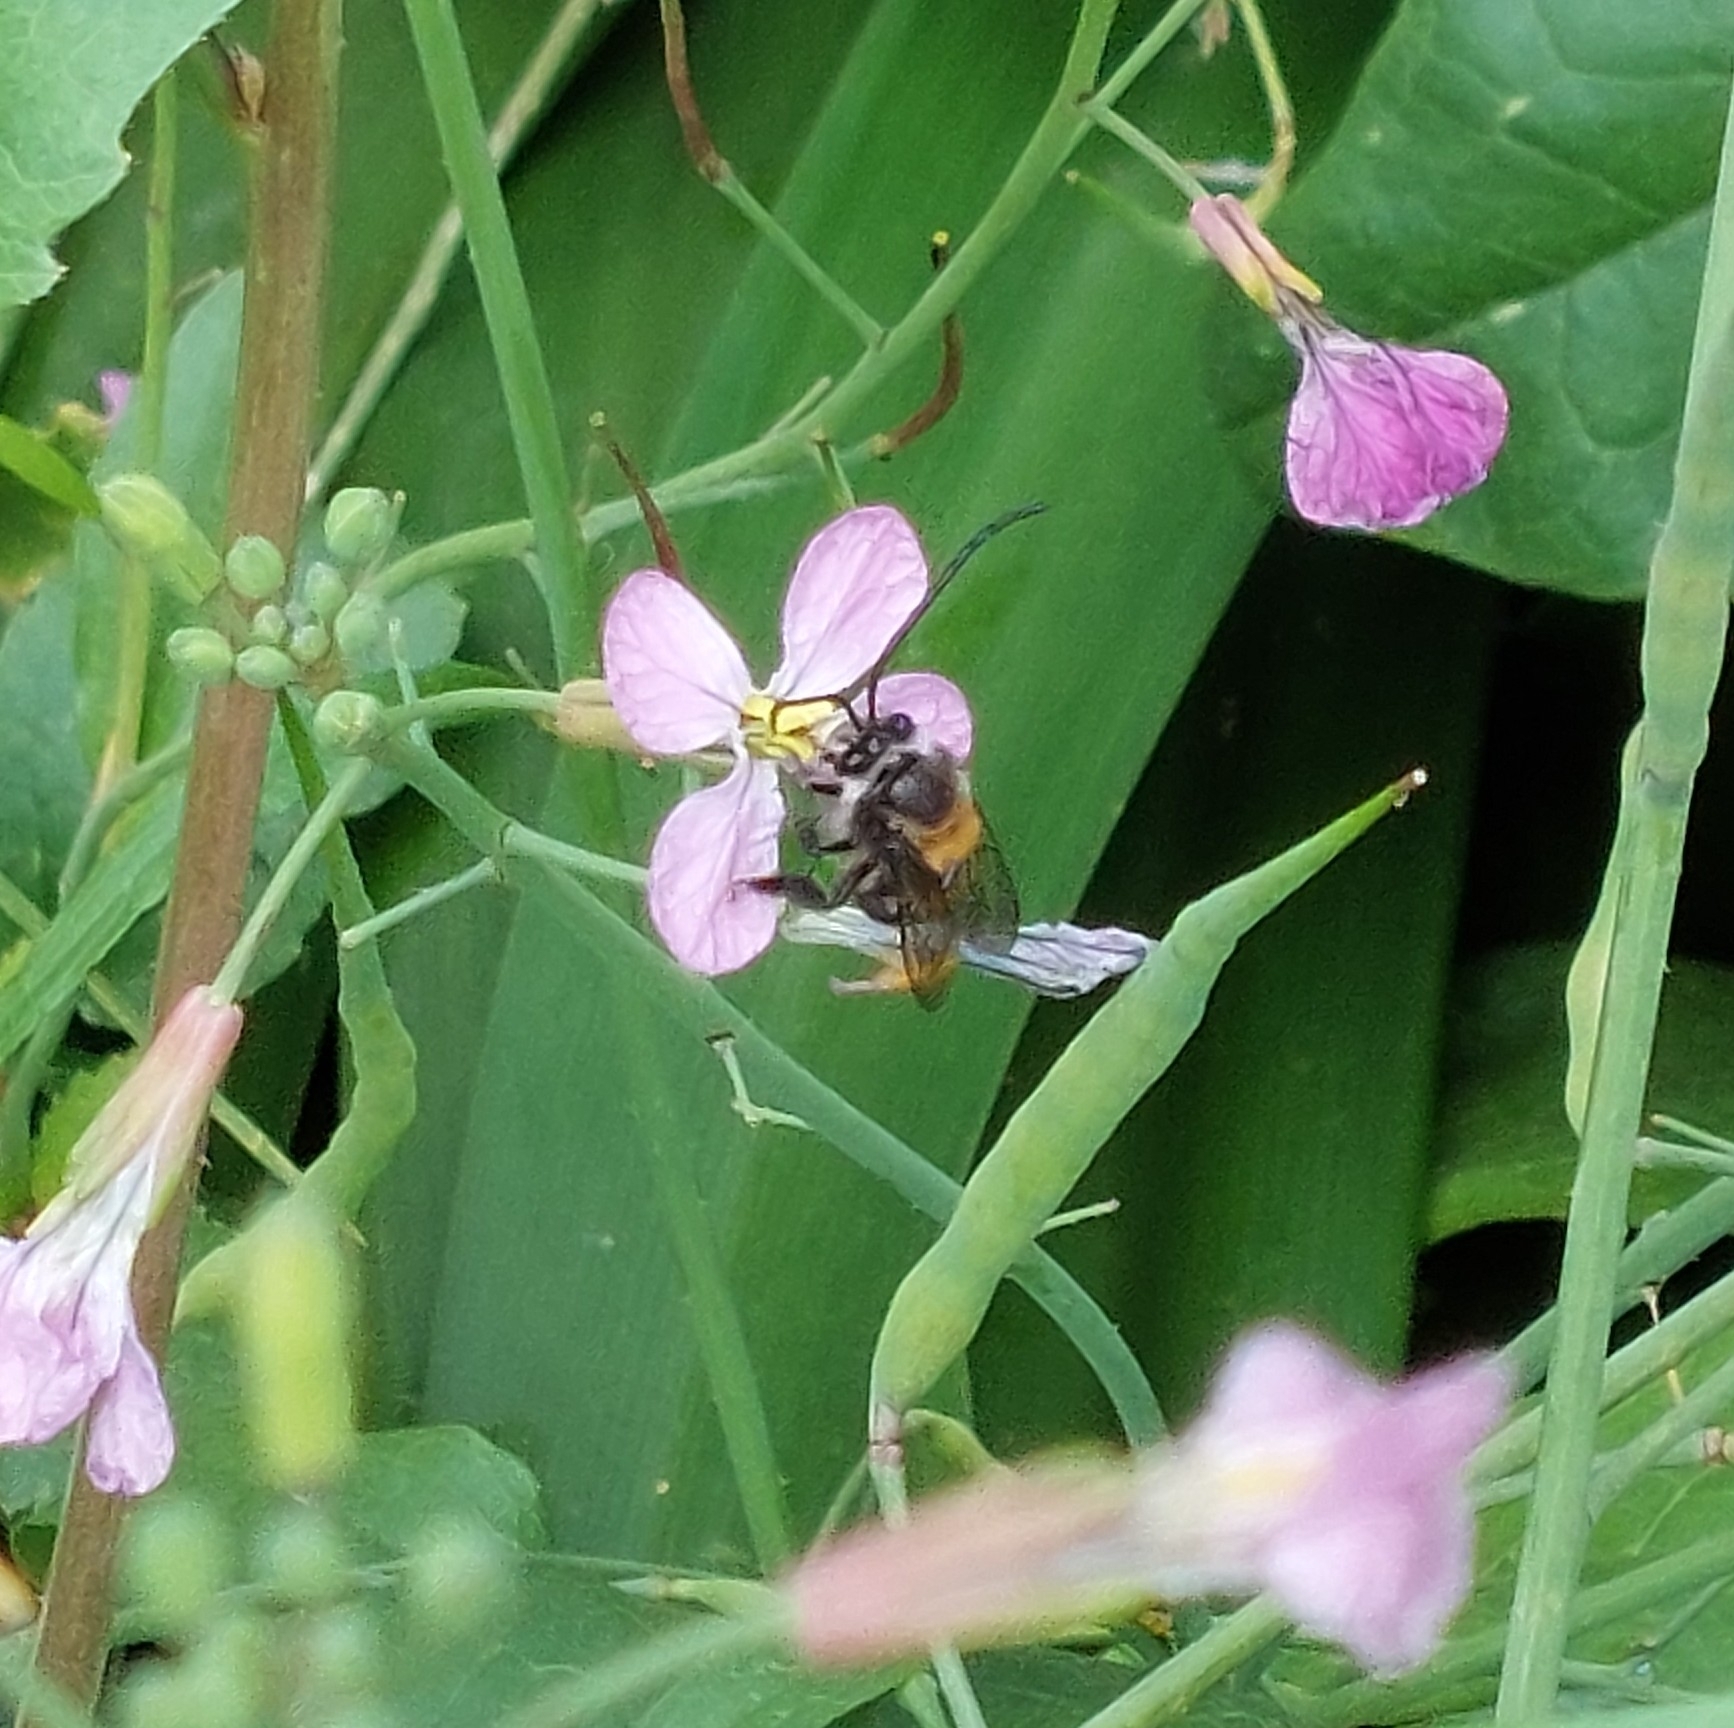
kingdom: Animalia
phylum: Arthropoda
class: Insecta
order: Hymenoptera
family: Apidae
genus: Thygater
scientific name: Thygater aethiops
